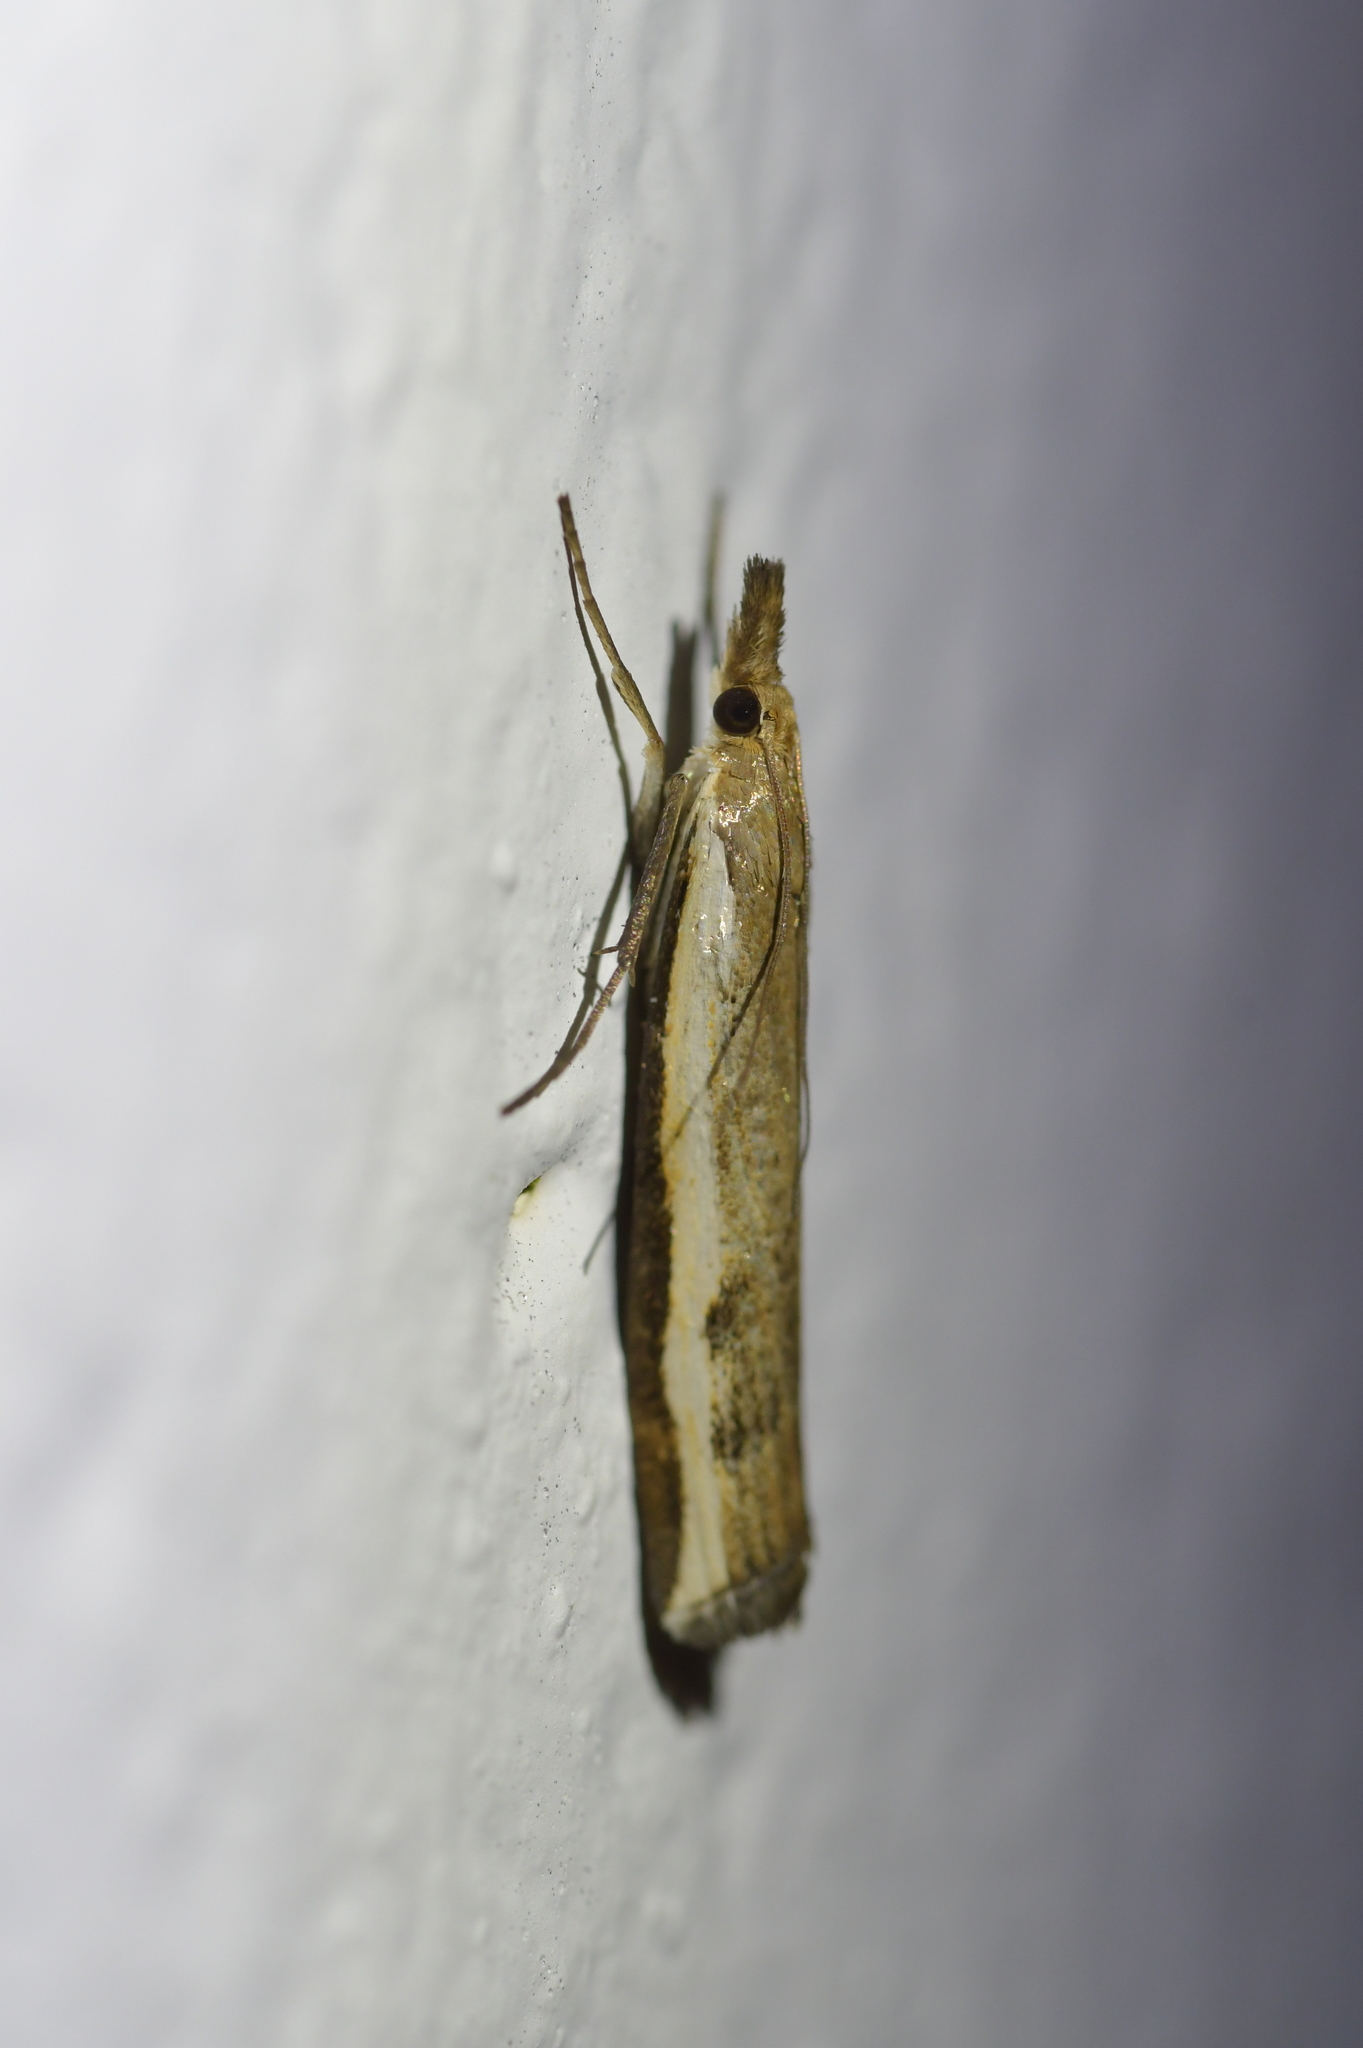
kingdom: Animalia
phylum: Arthropoda
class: Insecta
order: Lepidoptera
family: Crambidae
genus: Orocrambus
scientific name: Orocrambus flexuosellus
